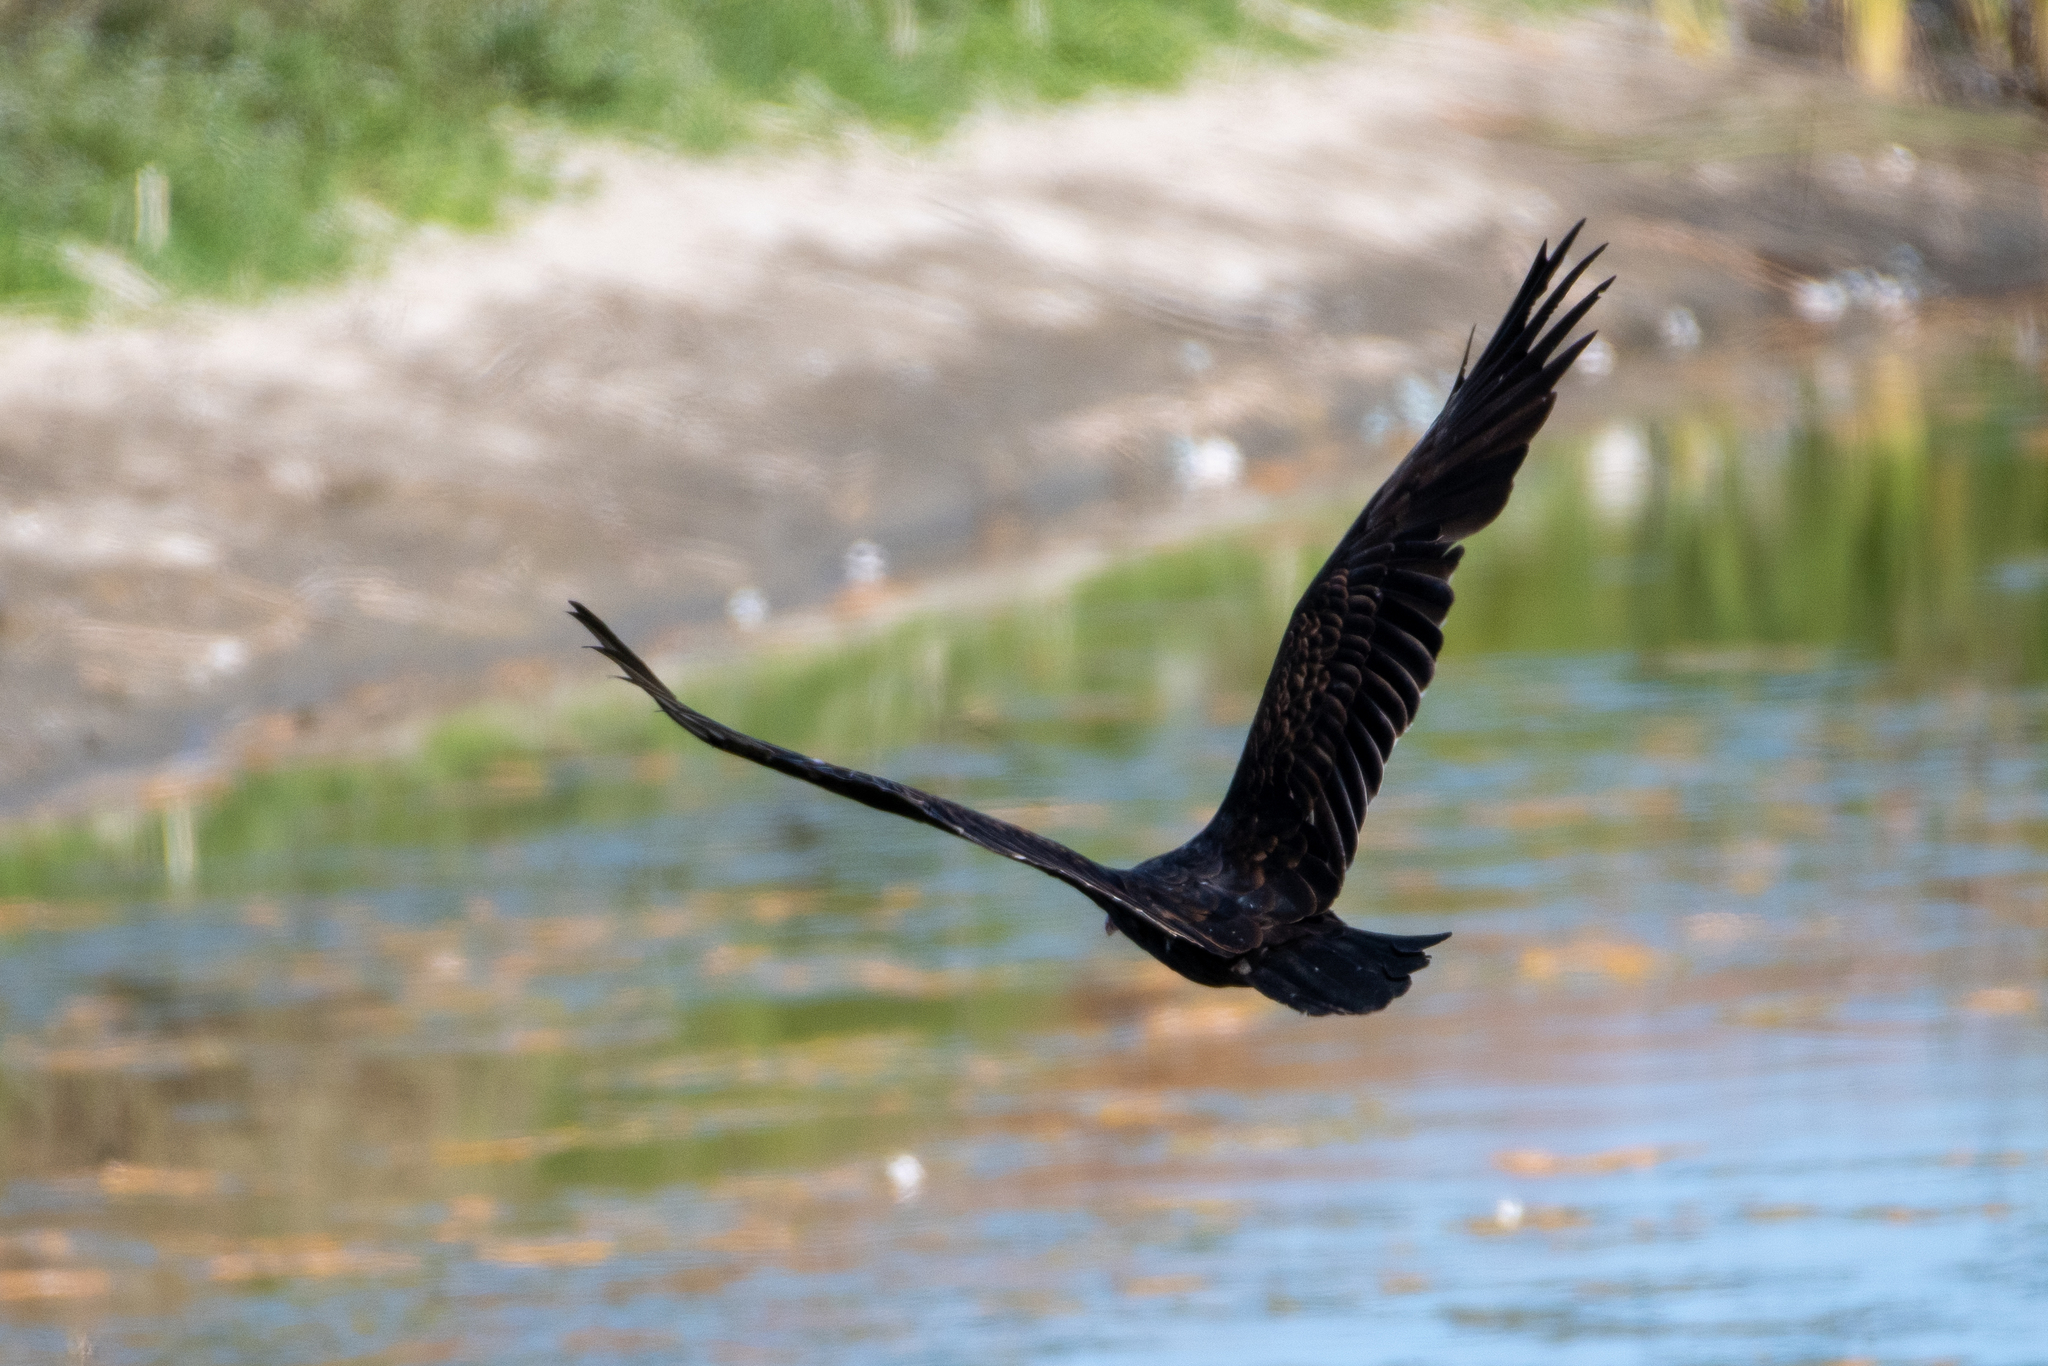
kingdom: Animalia
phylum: Chordata
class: Aves
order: Accipitriformes
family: Cathartidae
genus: Cathartes
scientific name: Cathartes aura
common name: Turkey vulture
